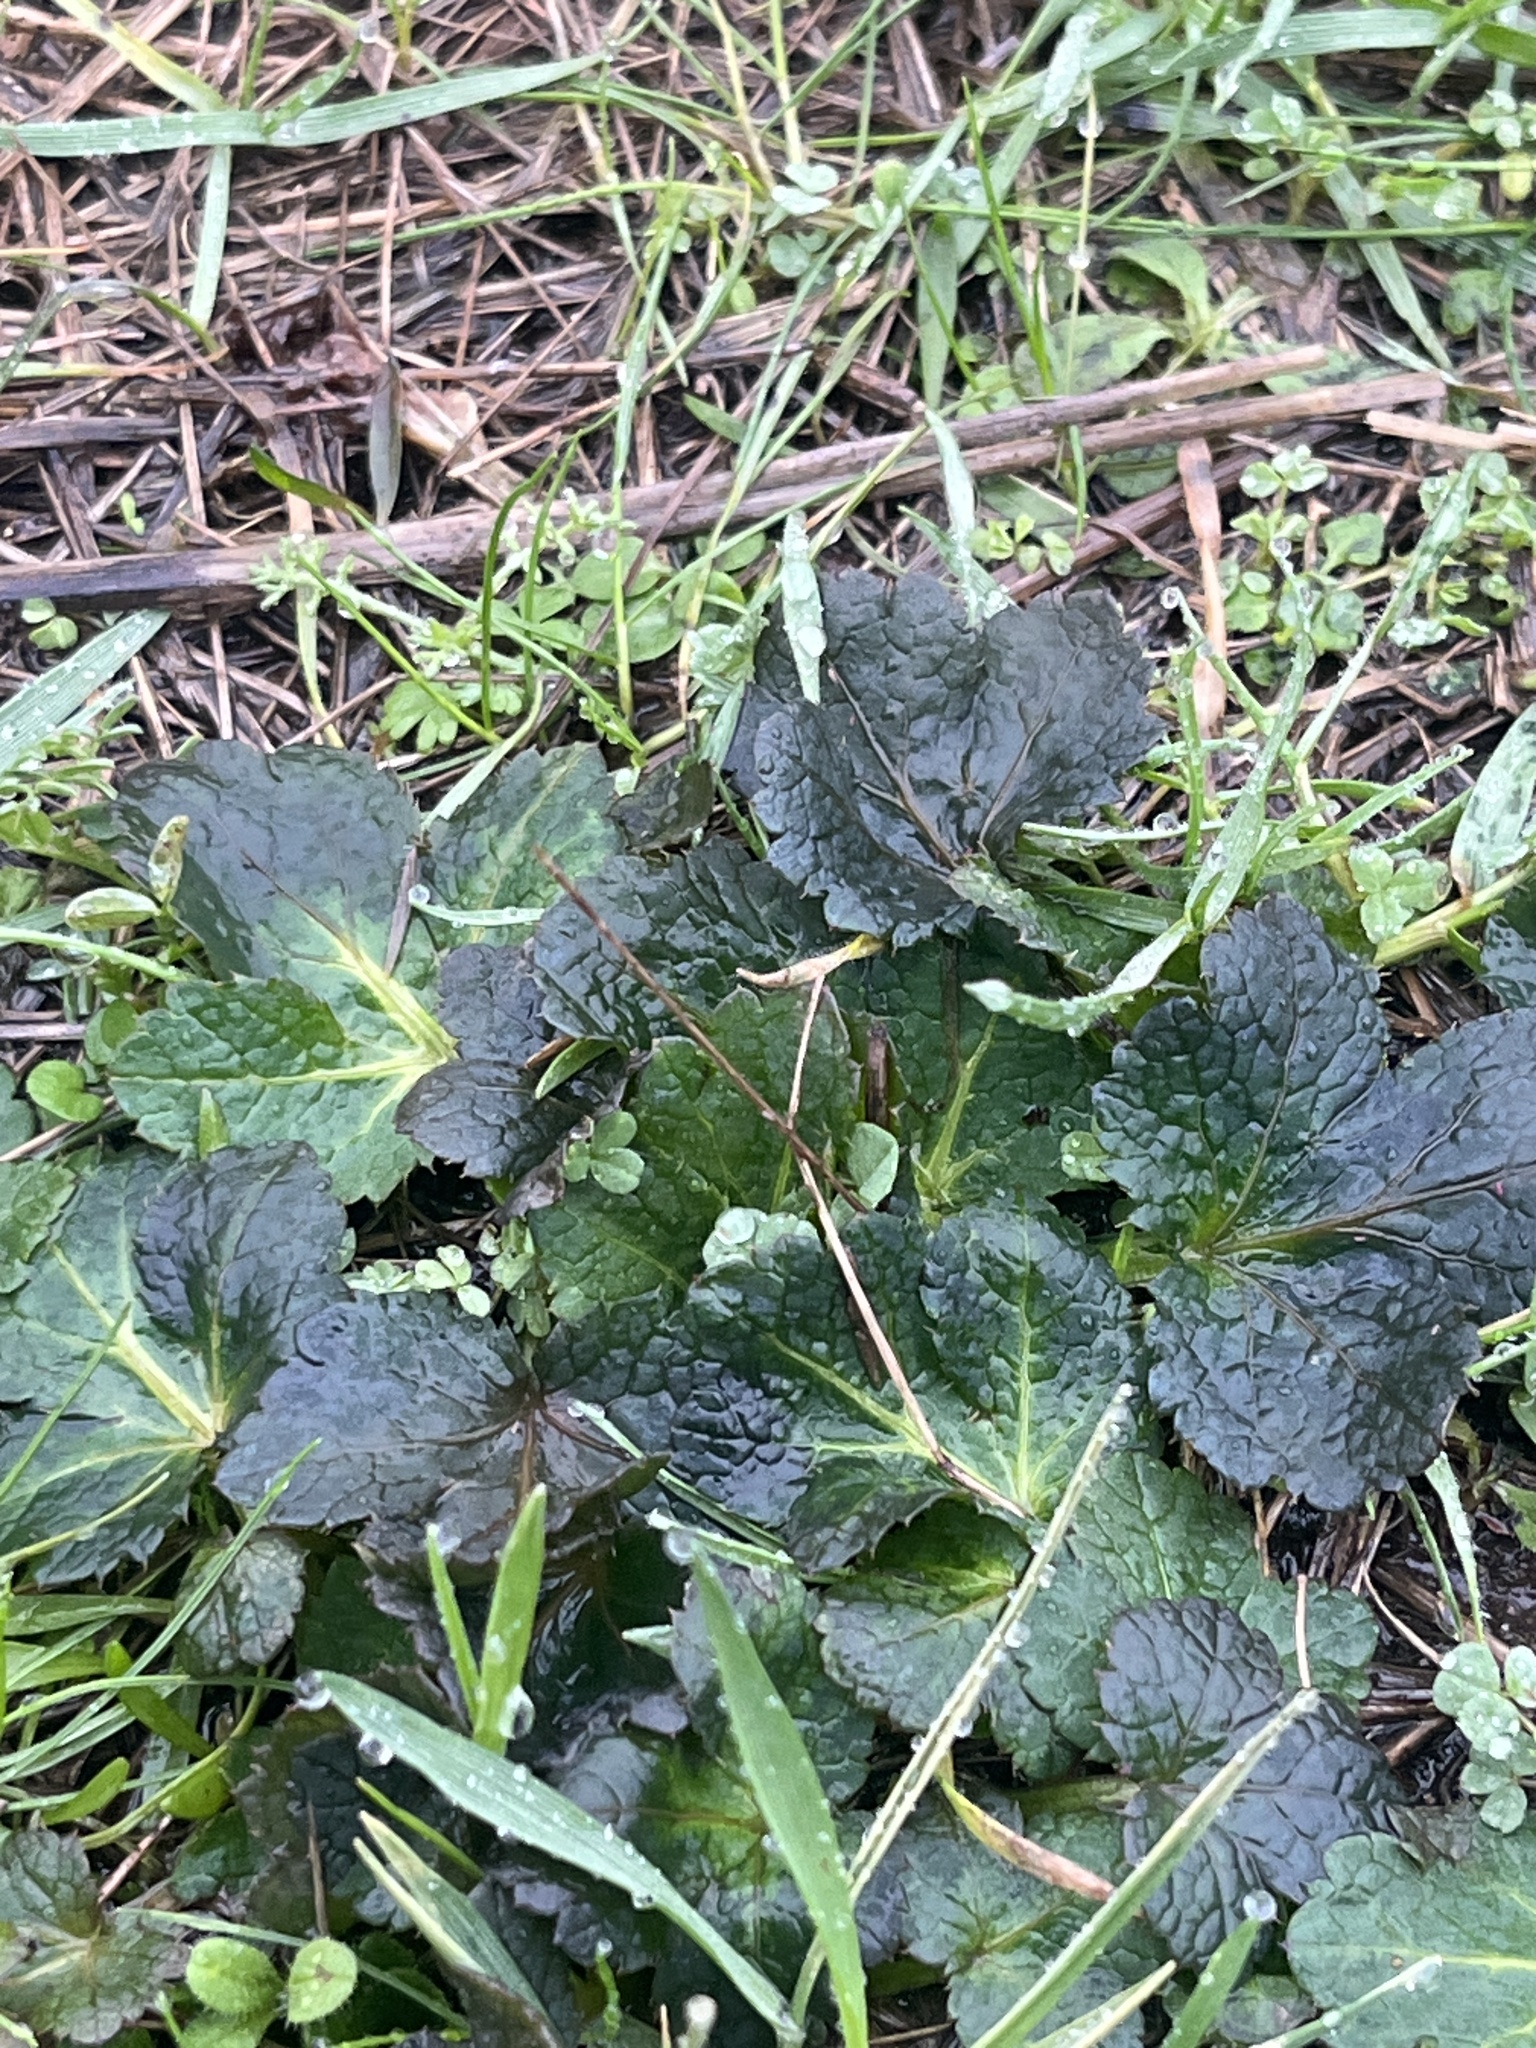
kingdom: Plantae
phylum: Tracheophyta
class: Magnoliopsida
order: Apiales
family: Apiaceae
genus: Sanicula
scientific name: Sanicula crassicaulis
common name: Western snakeroot
